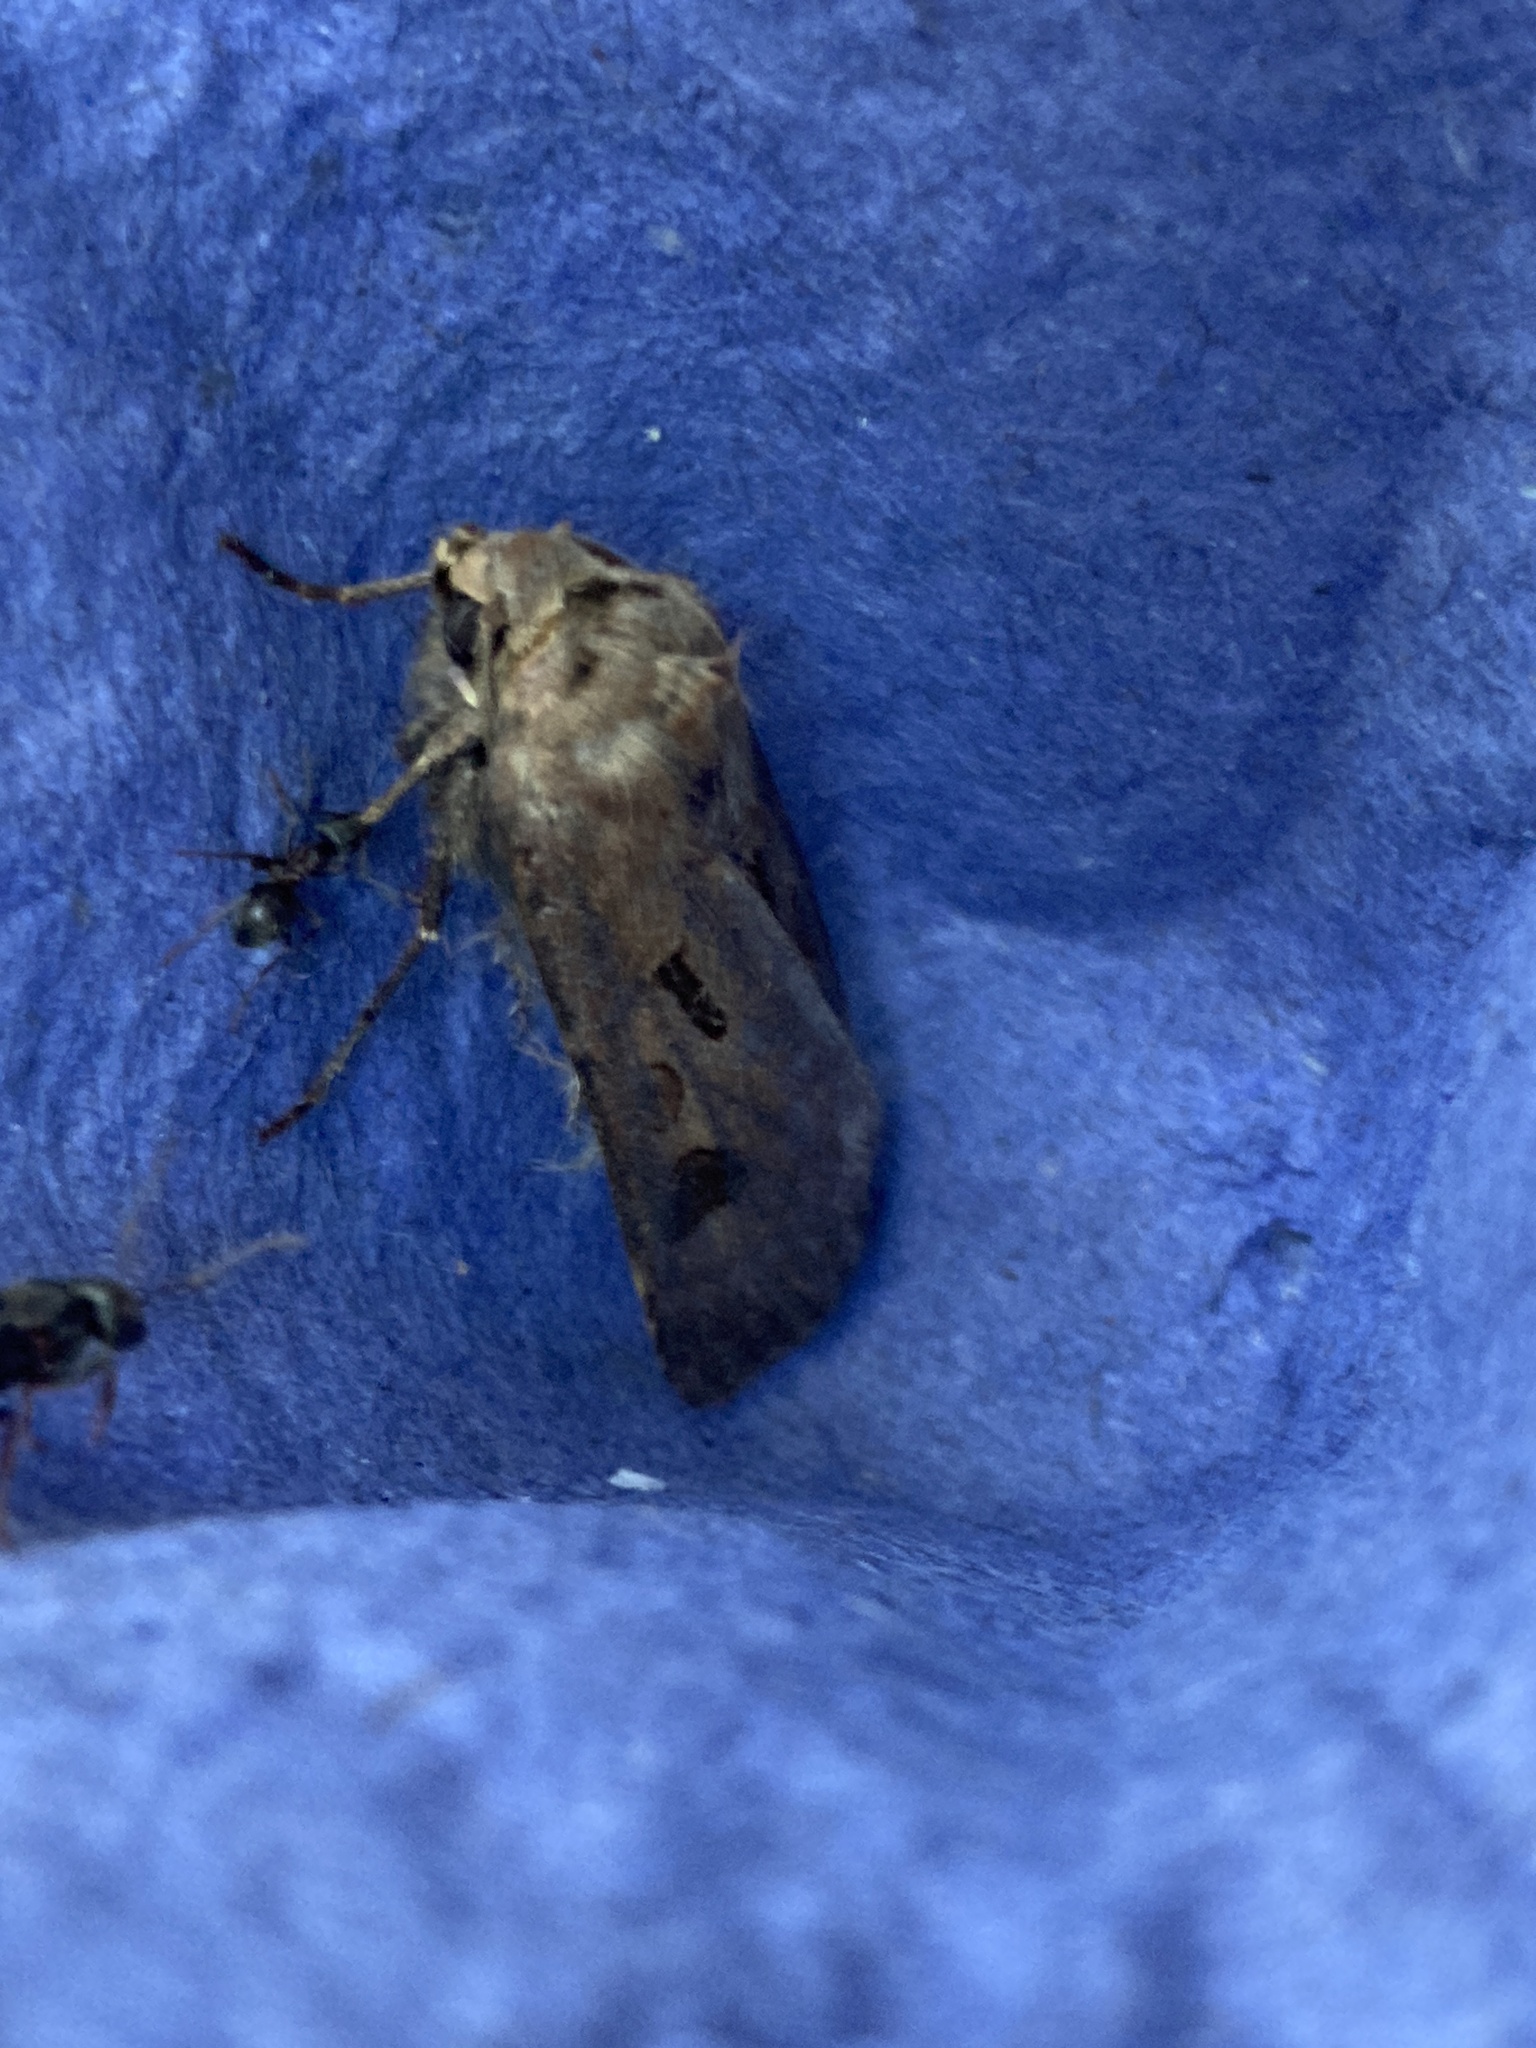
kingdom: Animalia
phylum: Arthropoda
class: Insecta
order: Lepidoptera
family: Noctuidae
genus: Agrotis
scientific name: Agrotis exclamationis
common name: Heart and dart
